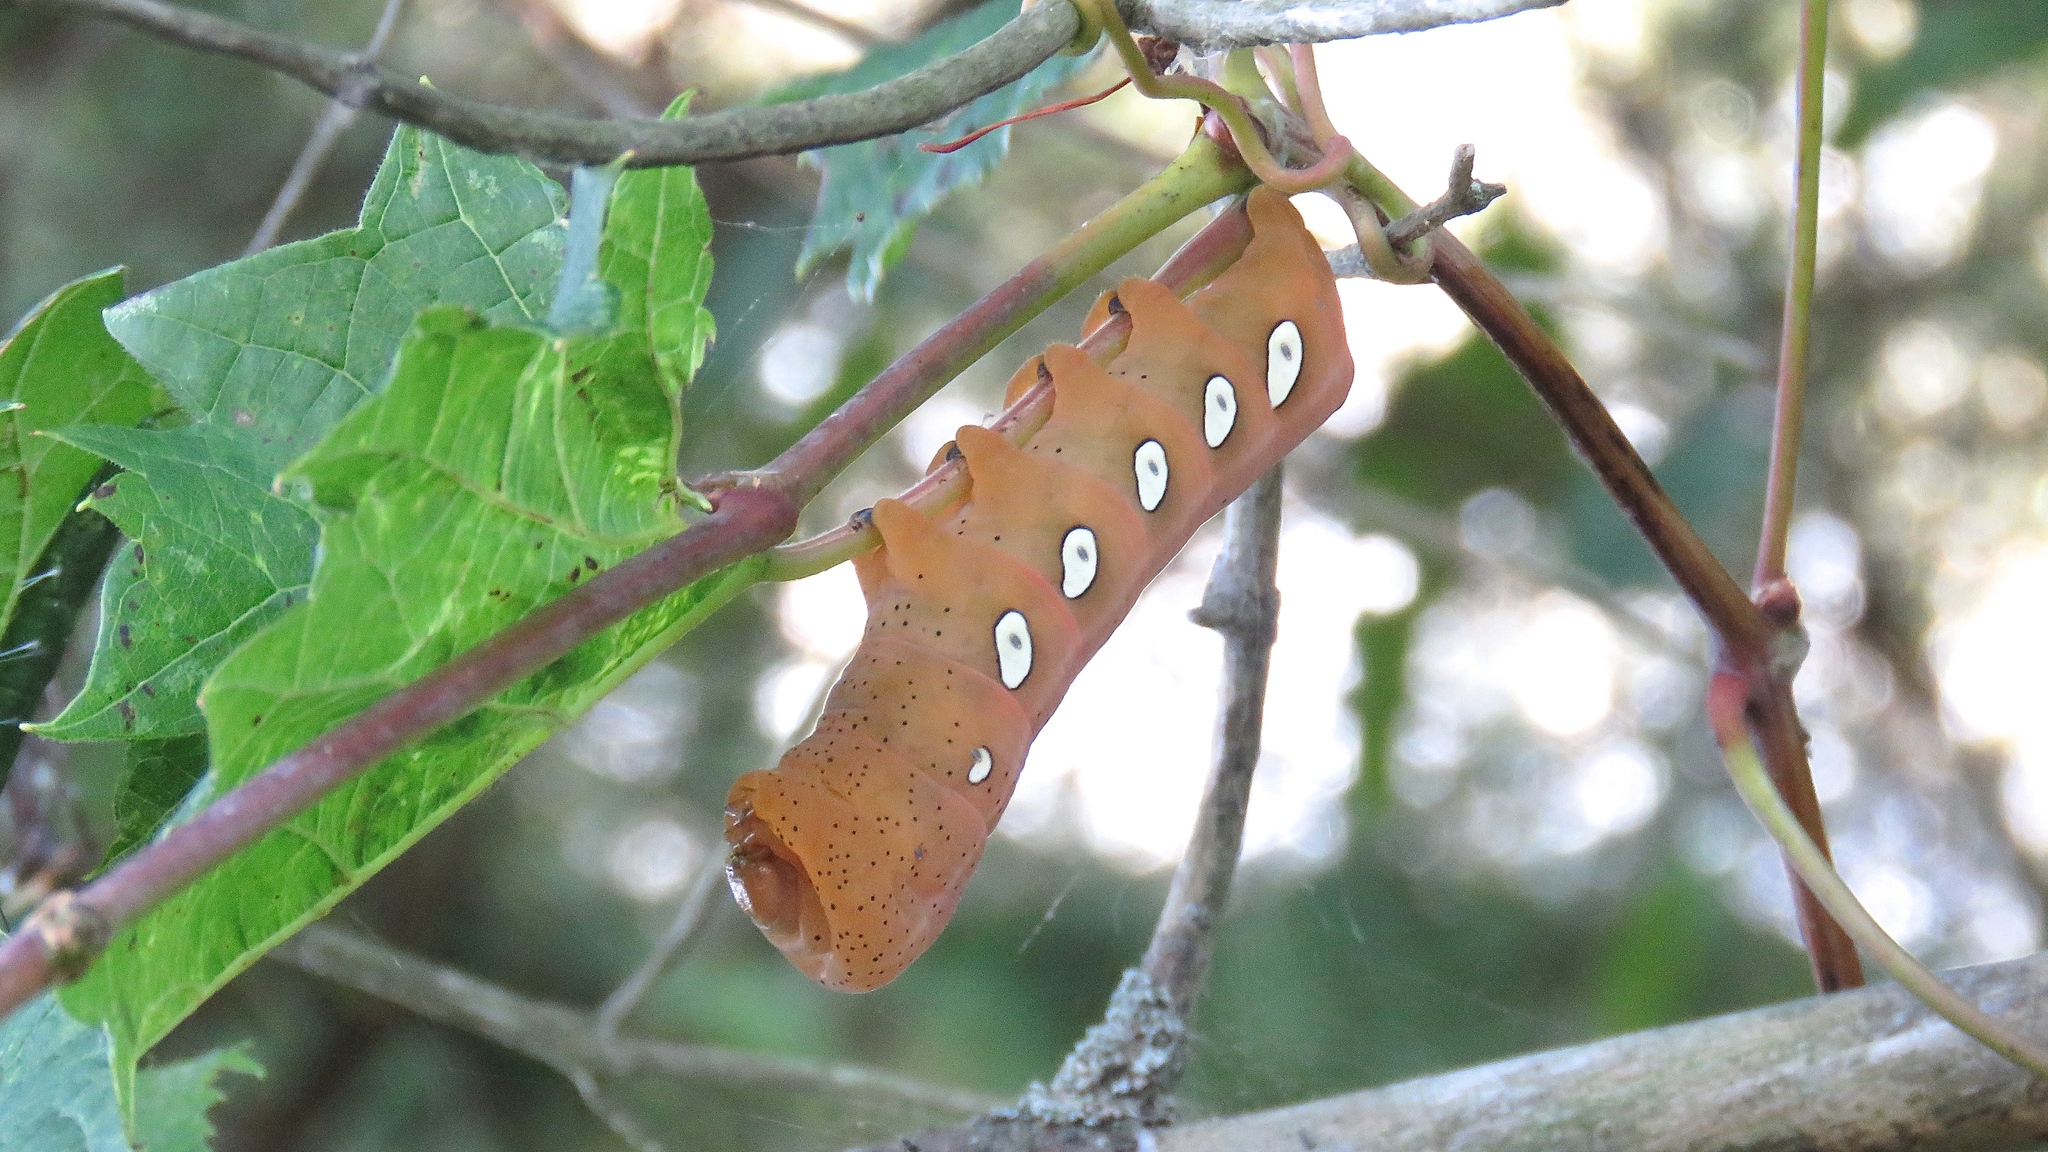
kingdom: Animalia
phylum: Arthropoda
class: Insecta
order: Lepidoptera
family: Sphingidae
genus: Eumorpha
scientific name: Eumorpha pandorus
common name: Pandora sphinx
